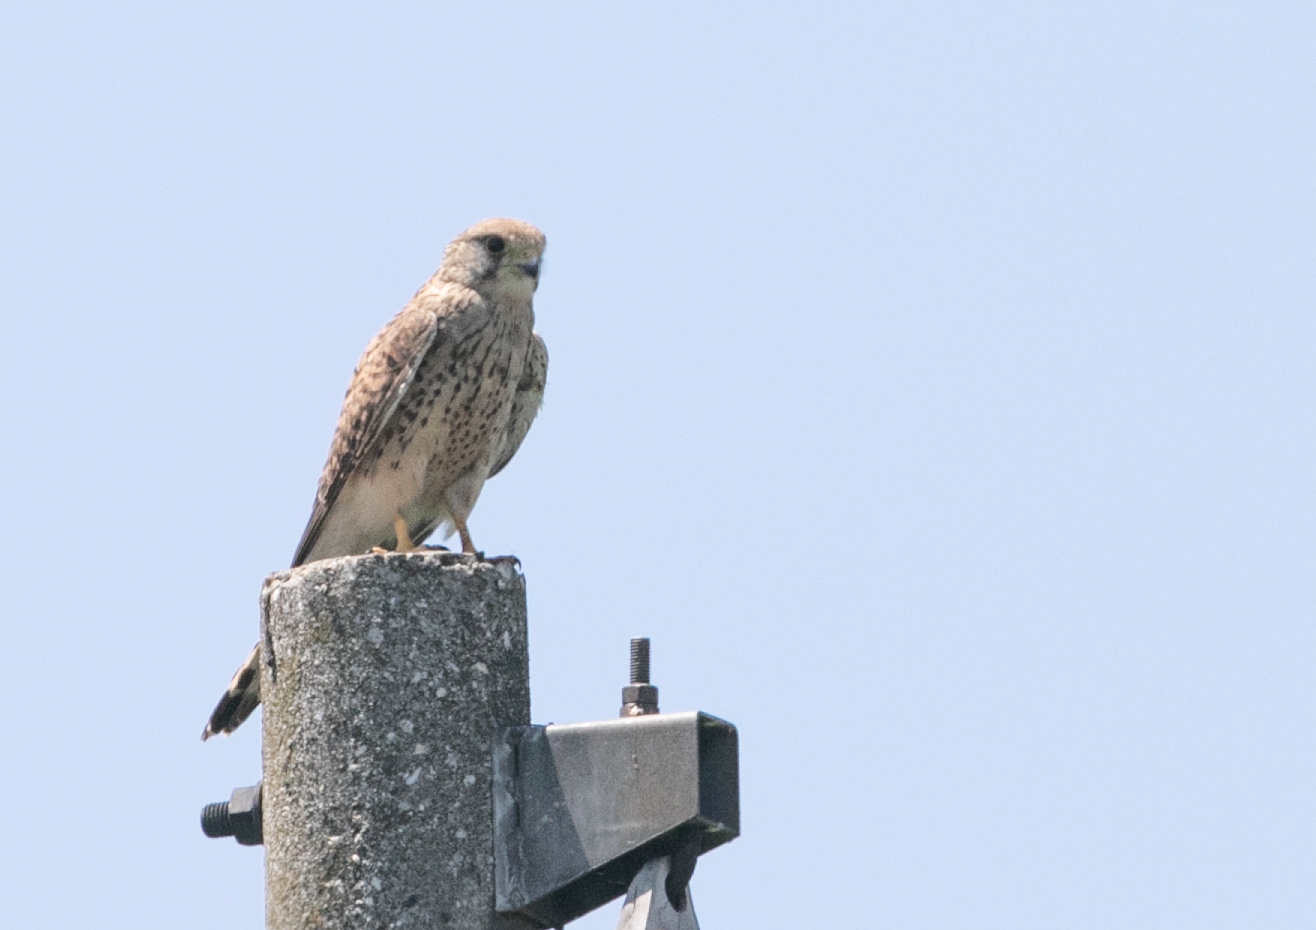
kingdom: Animalia
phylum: Chordata
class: Aves
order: Falconiformes
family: Falconidae
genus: Falco
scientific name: Falco tinnunculus
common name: Common kestrel
